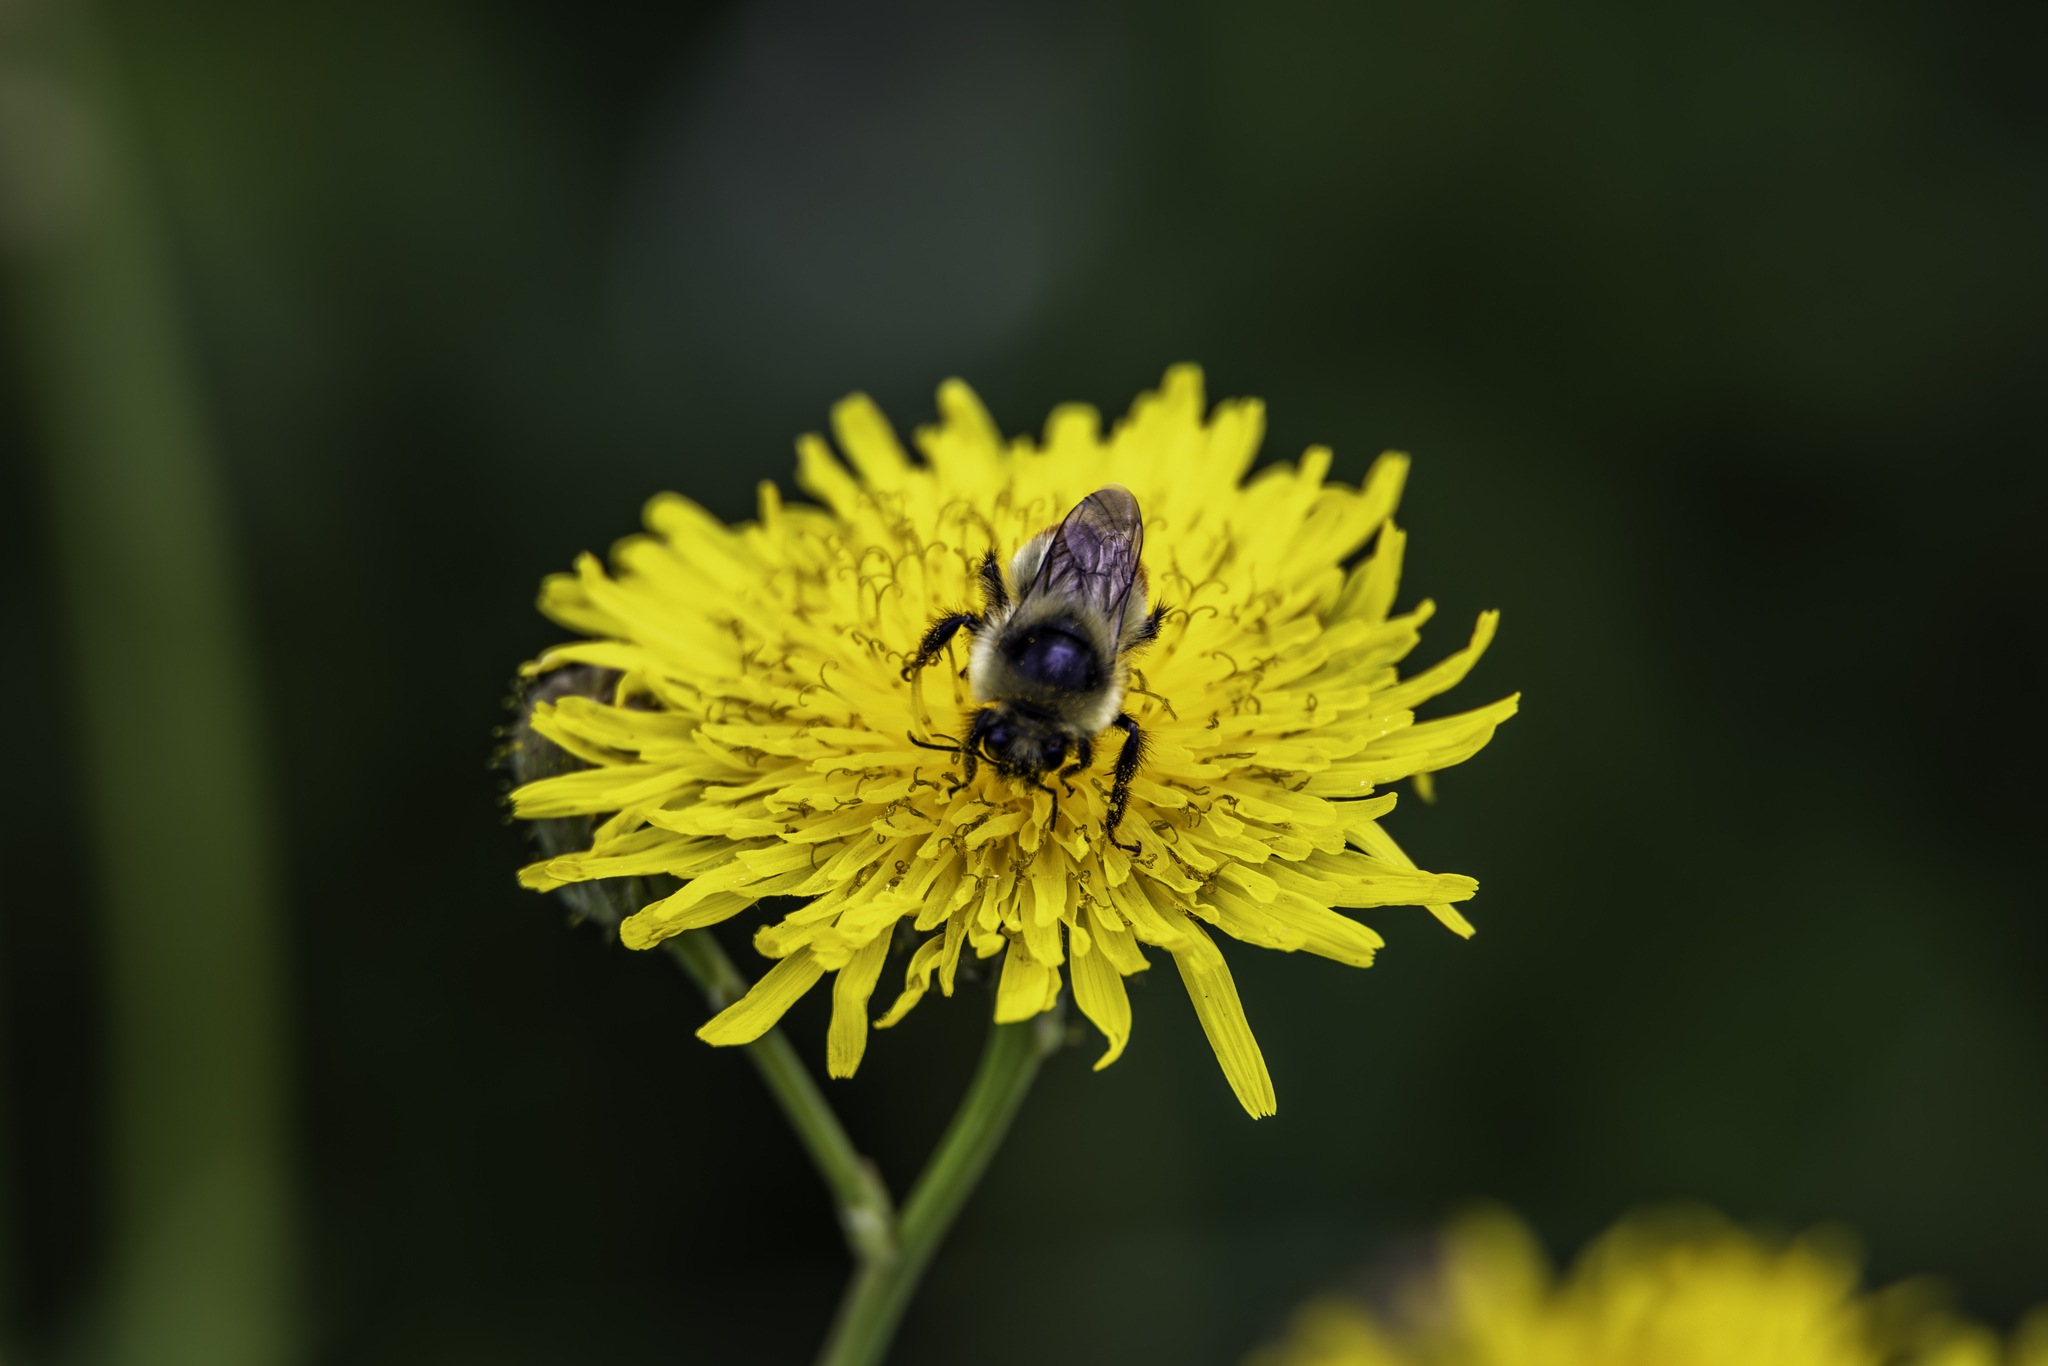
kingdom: Animalia
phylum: Arthropoda
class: Insecta
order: Hymenoptera
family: Apidae
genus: Bombus
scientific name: Bombus rufocinctus
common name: Red-belted bumble bee
